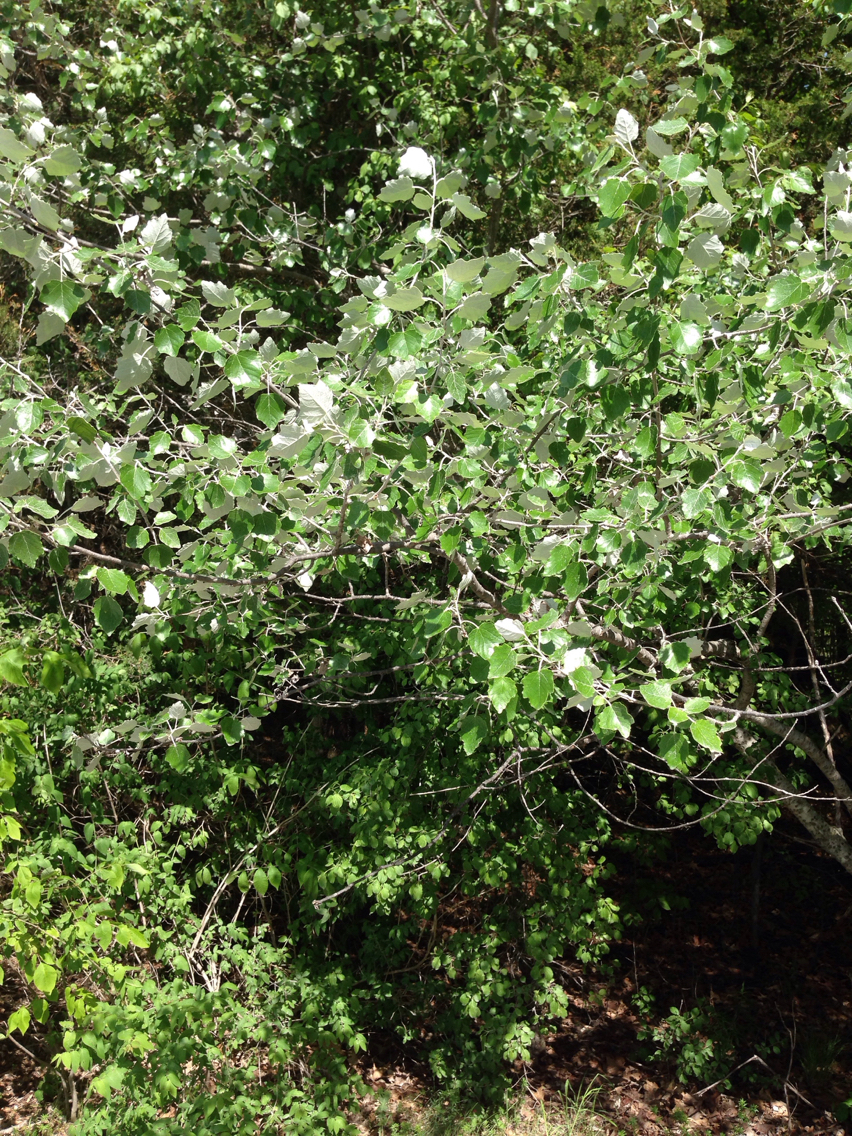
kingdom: Plantae
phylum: Tracheophyta
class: Magnoliopsida
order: Malpighiales
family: Salicaceae
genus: Populus
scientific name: Populus alba
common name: White poplar
